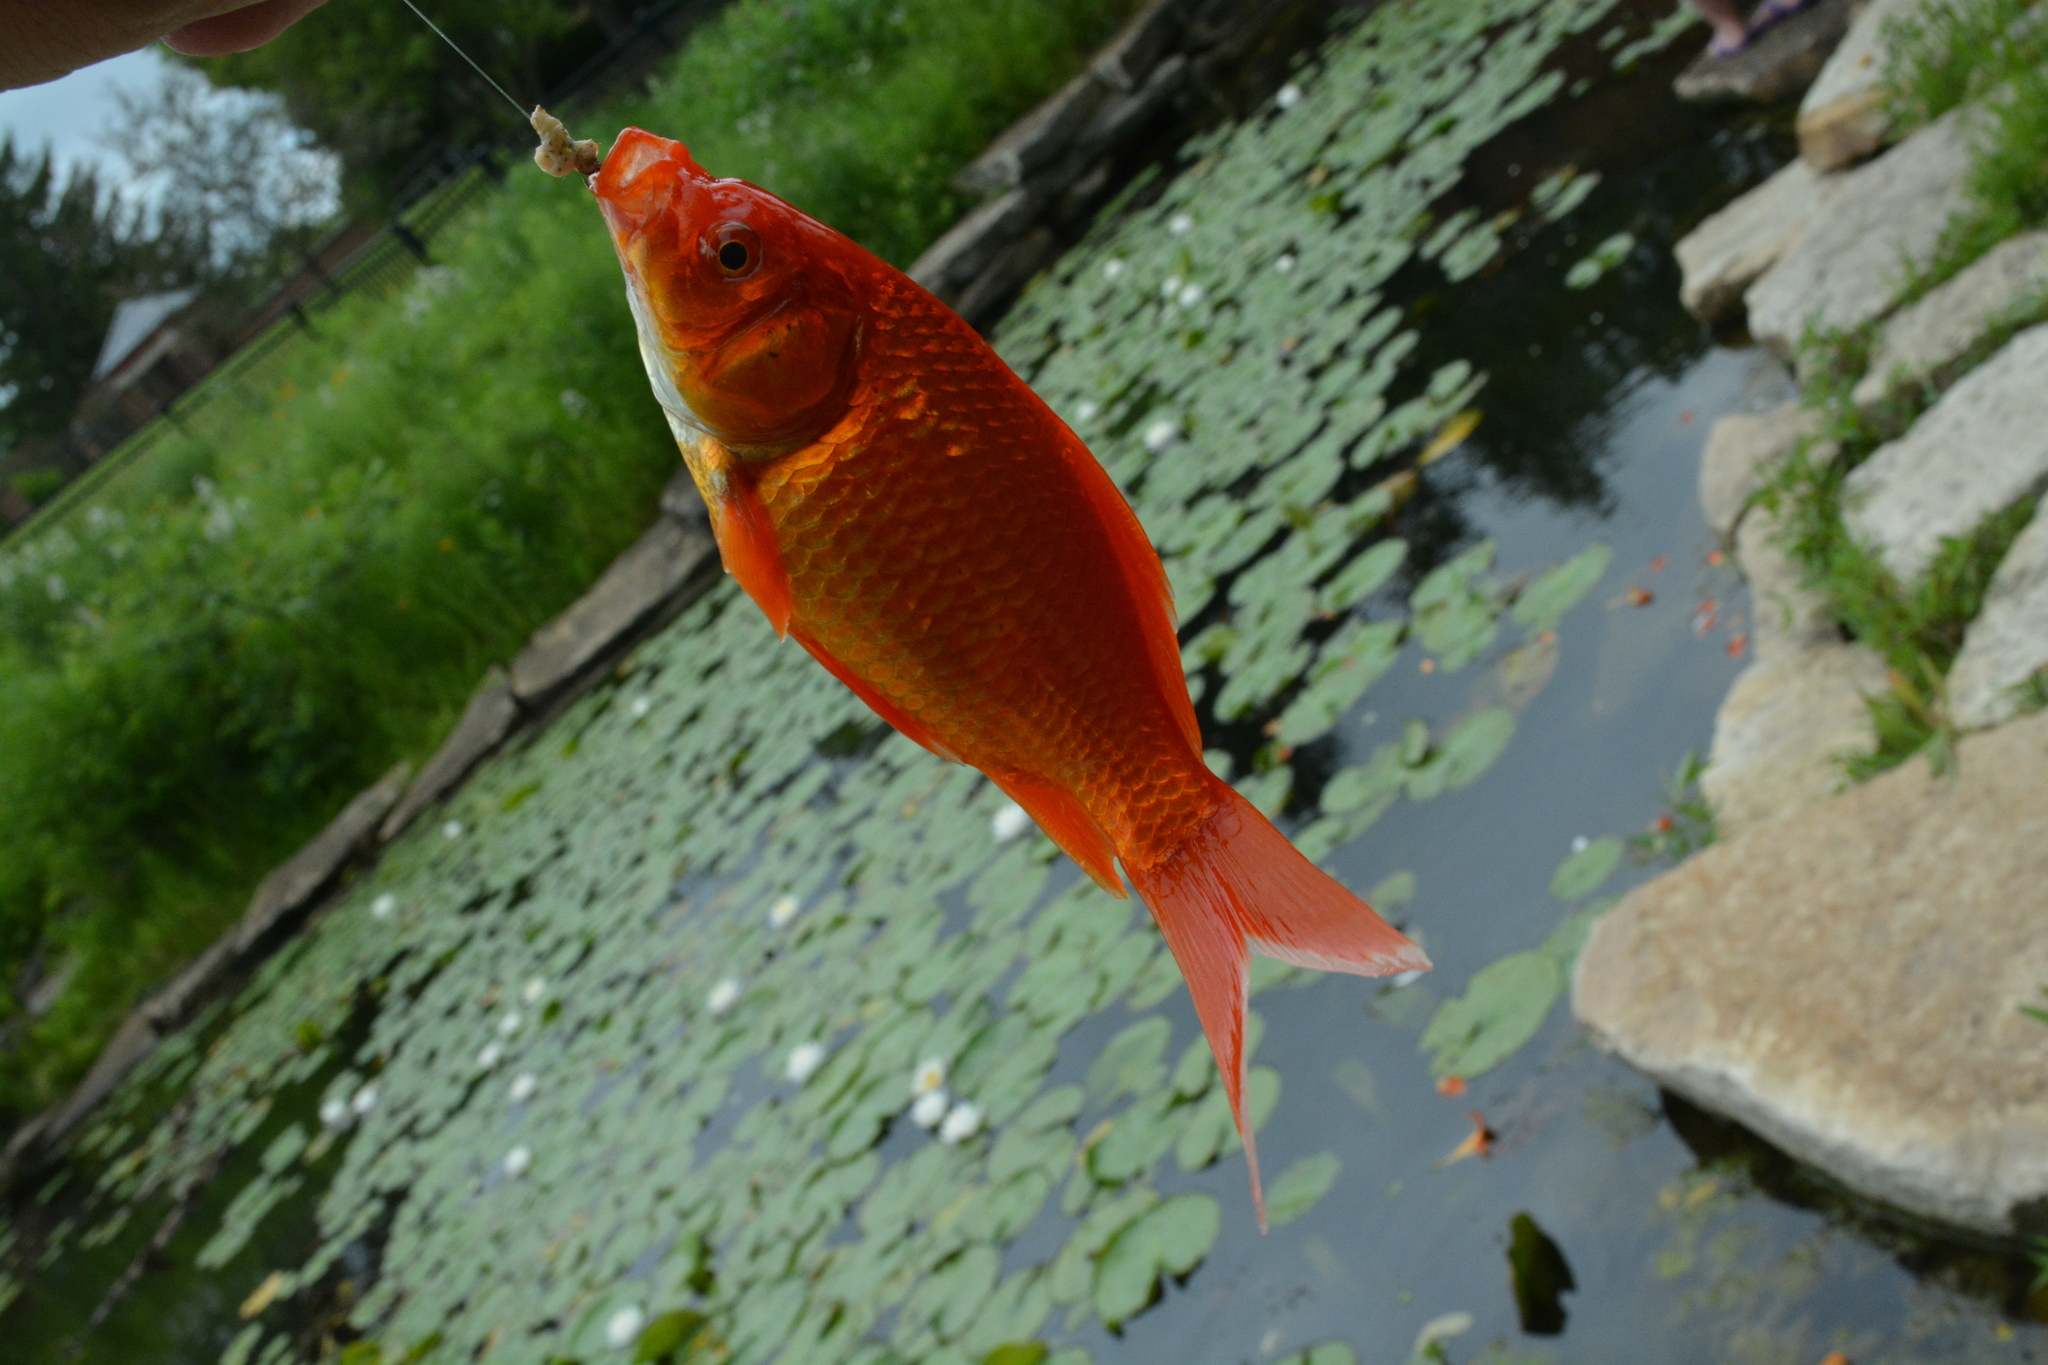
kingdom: Animalia
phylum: Chordata
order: Cypriniformes
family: Cyprinidae
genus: Carassius
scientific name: Carassius auratus
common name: Goldfish
